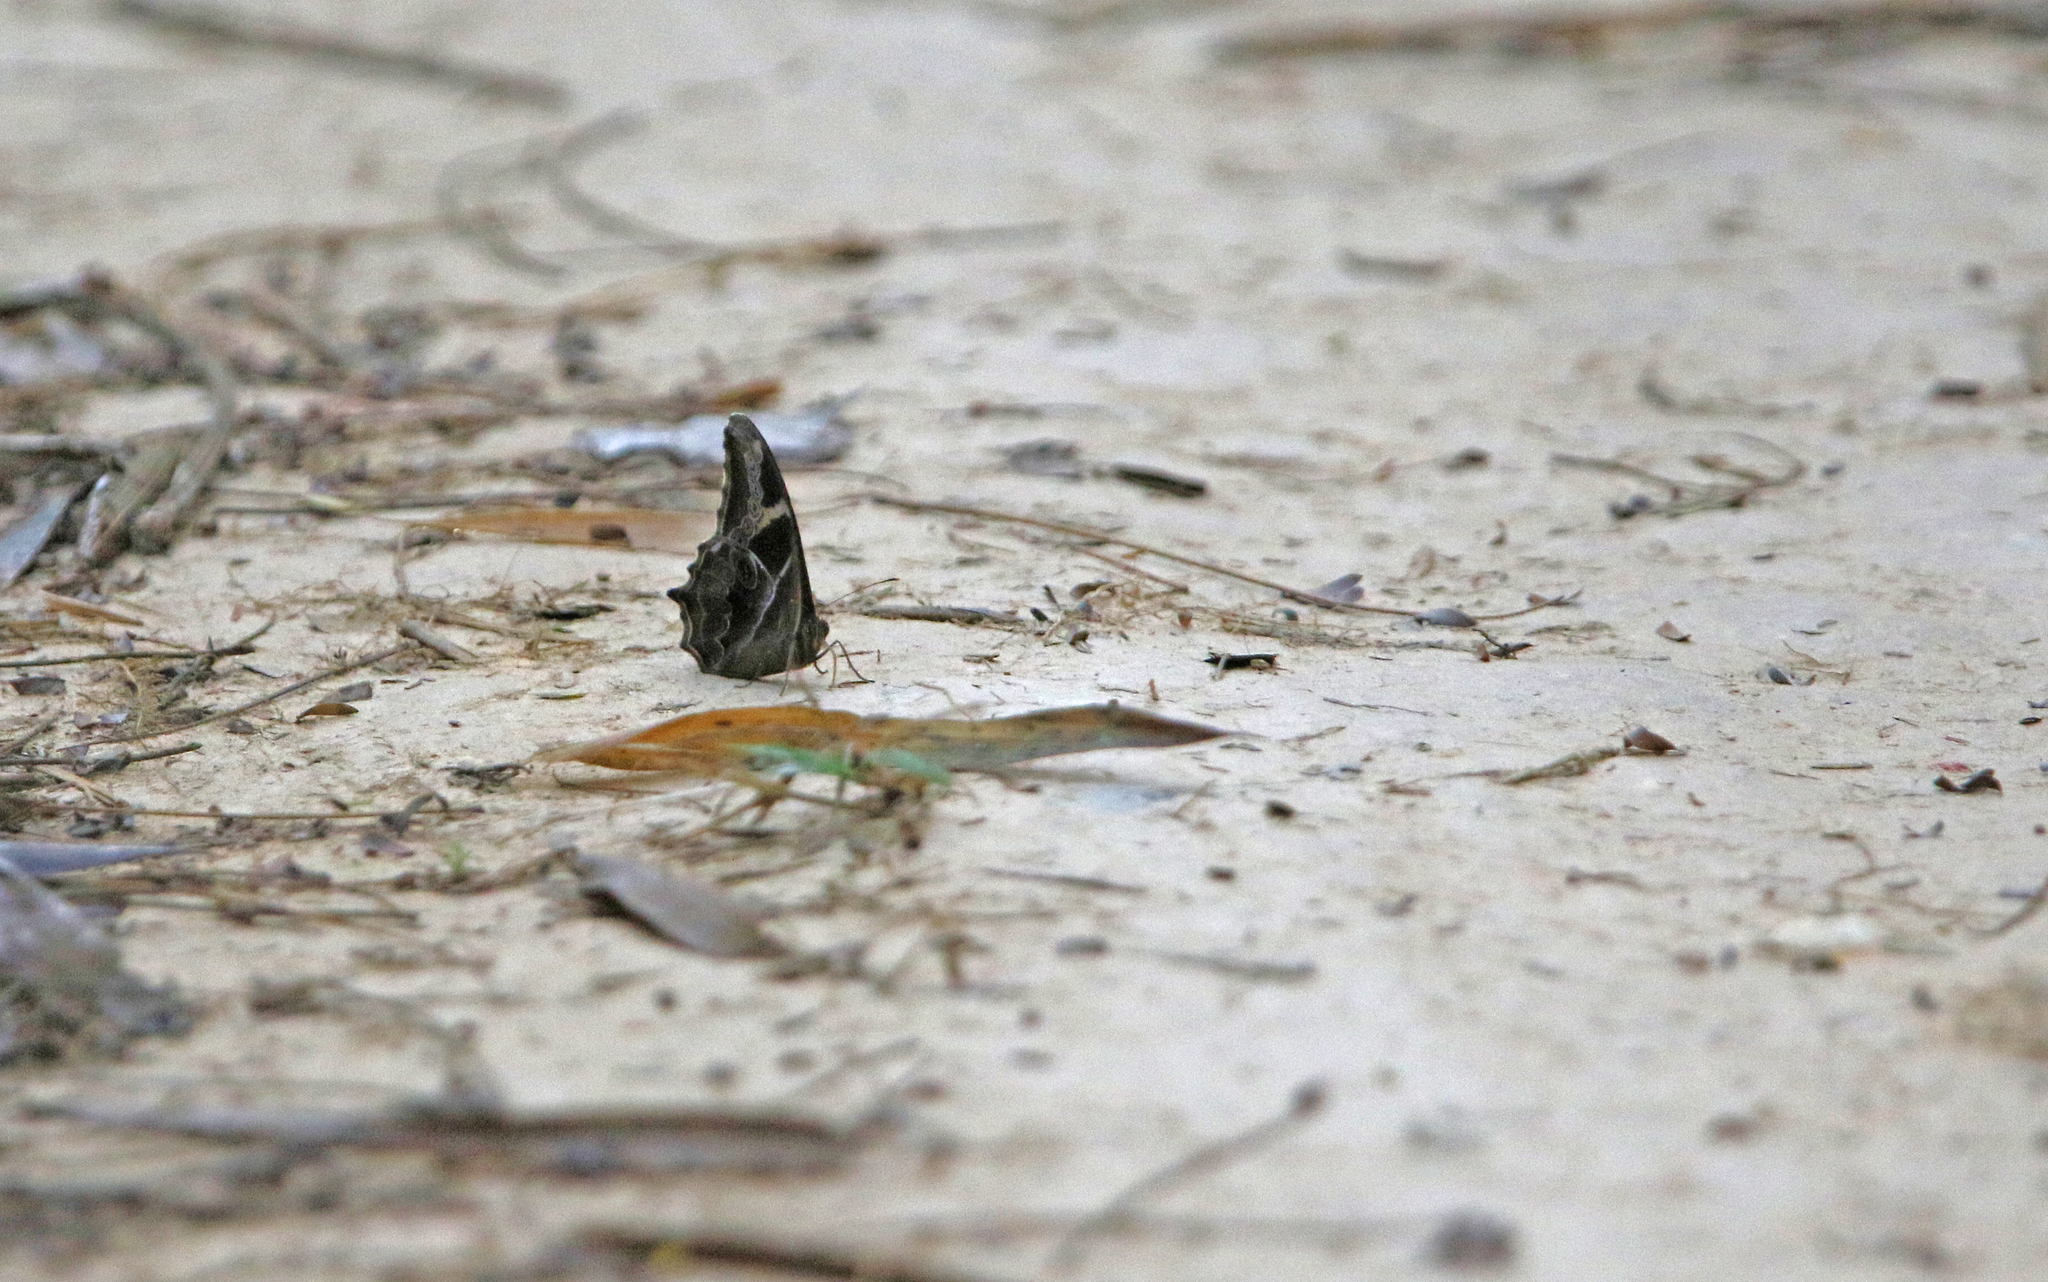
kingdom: Animalia
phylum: Arthropoda
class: Insecta
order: Lepidoptera
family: Nymphalidae
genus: Lethe
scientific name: Lethe europa
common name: Bamboo treebrown
